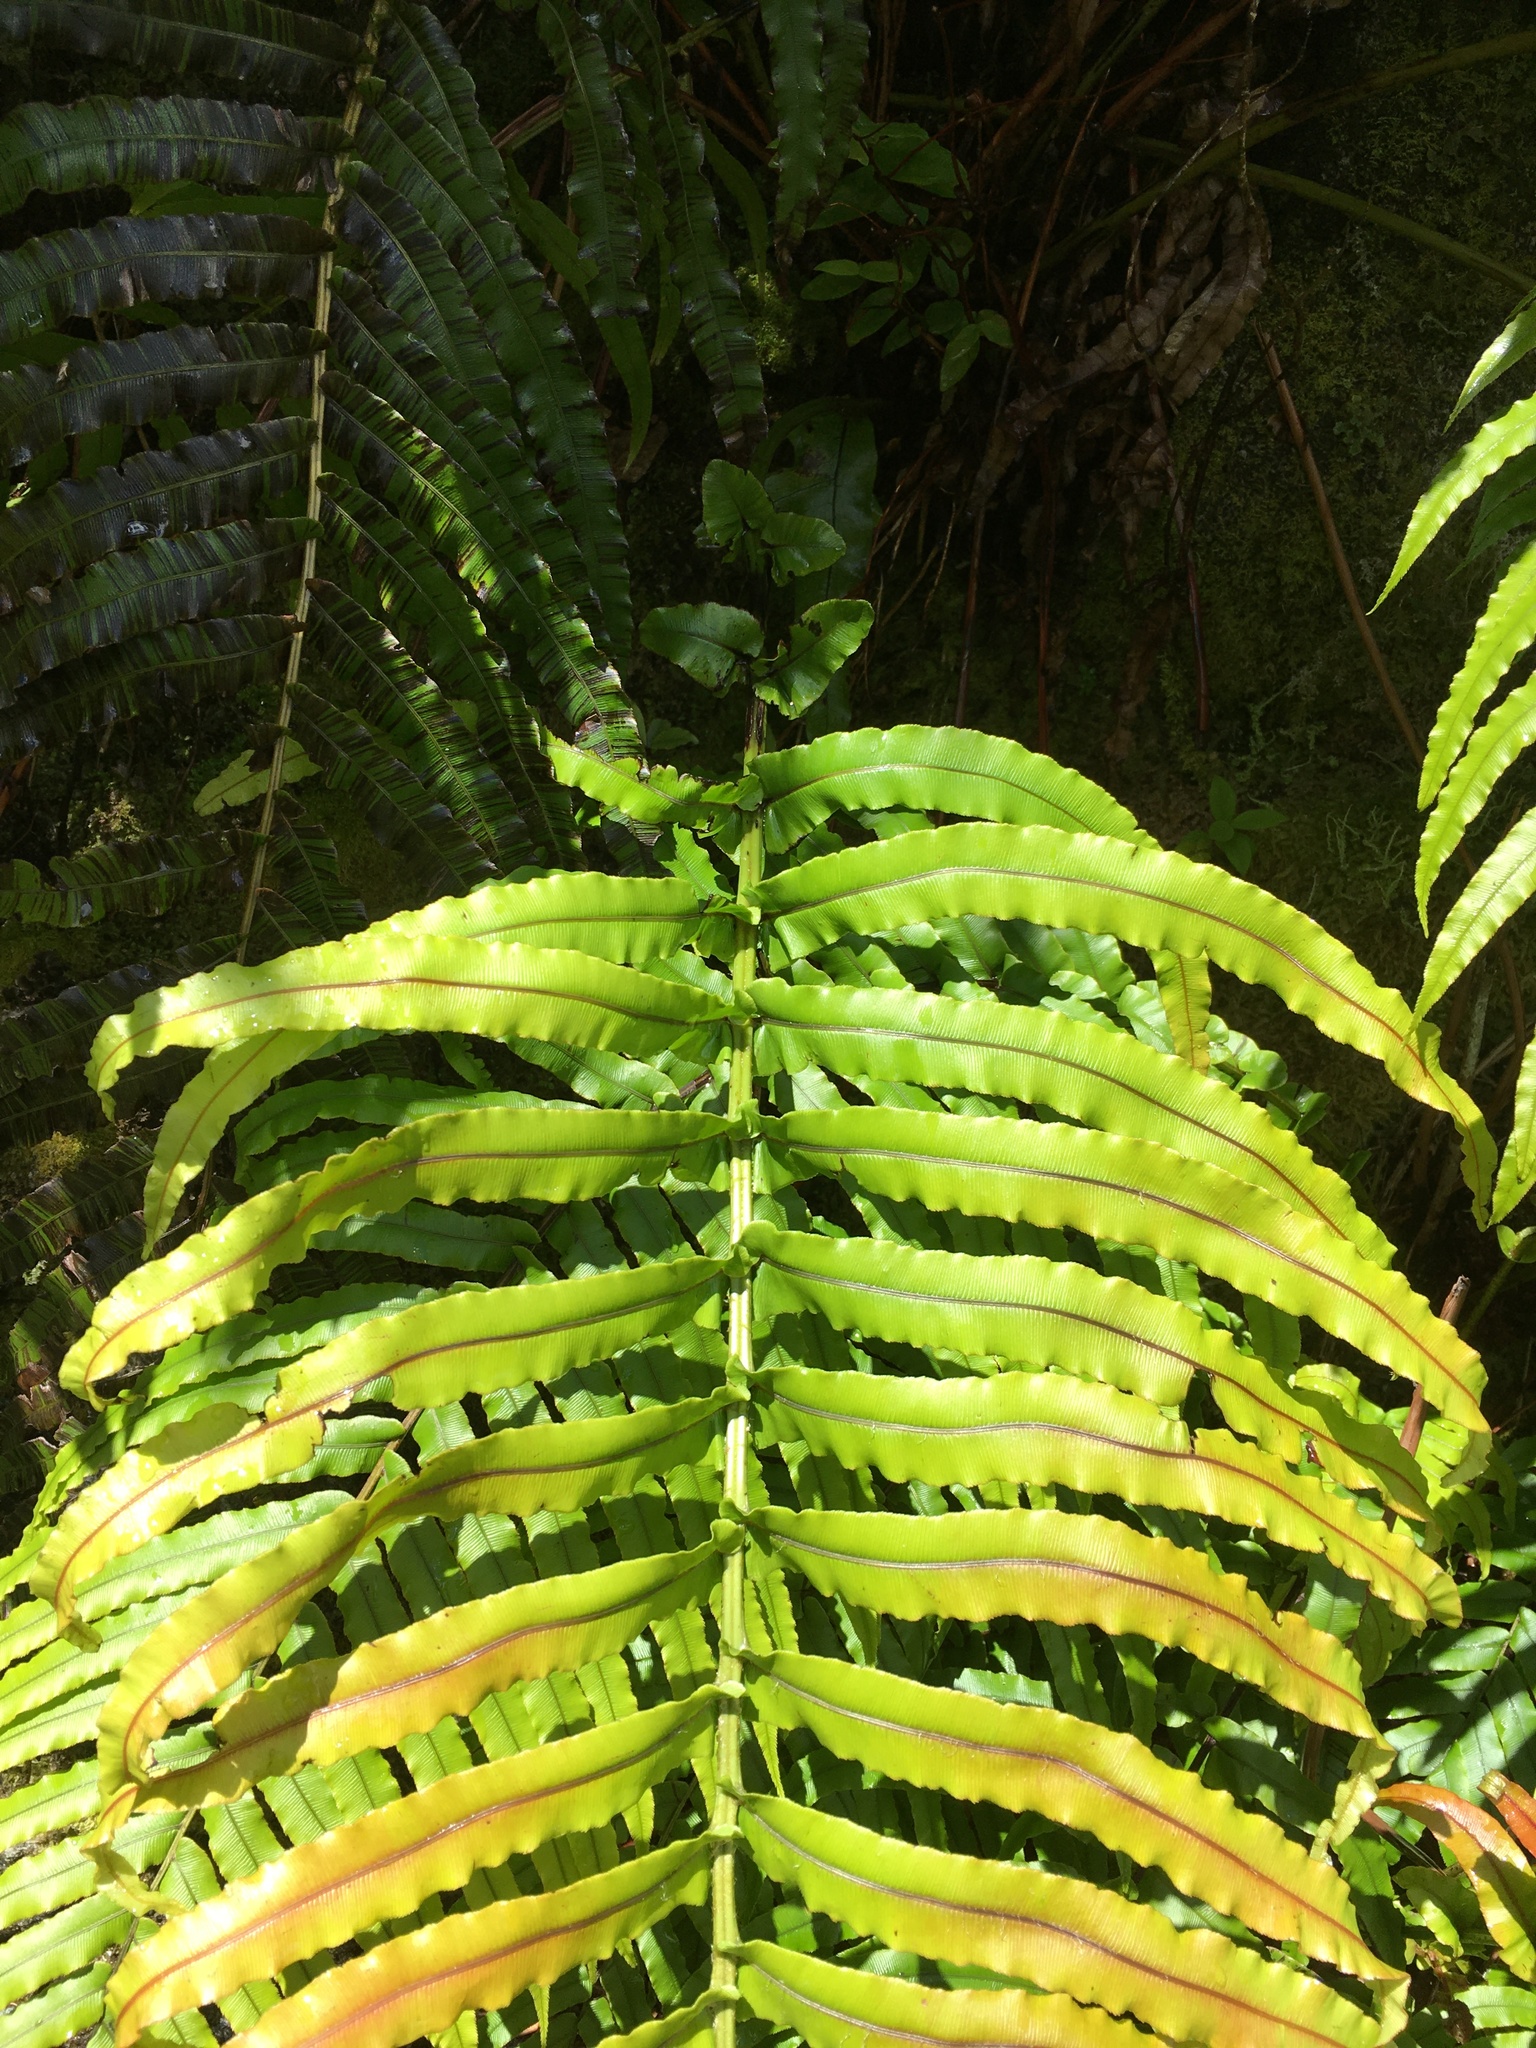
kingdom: Plantae
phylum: Tracheophyta
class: Polypodiopsida
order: Polypodiales
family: Blechnaceae
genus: Parablechnum
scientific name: Parablechnum novae-zelandiae
